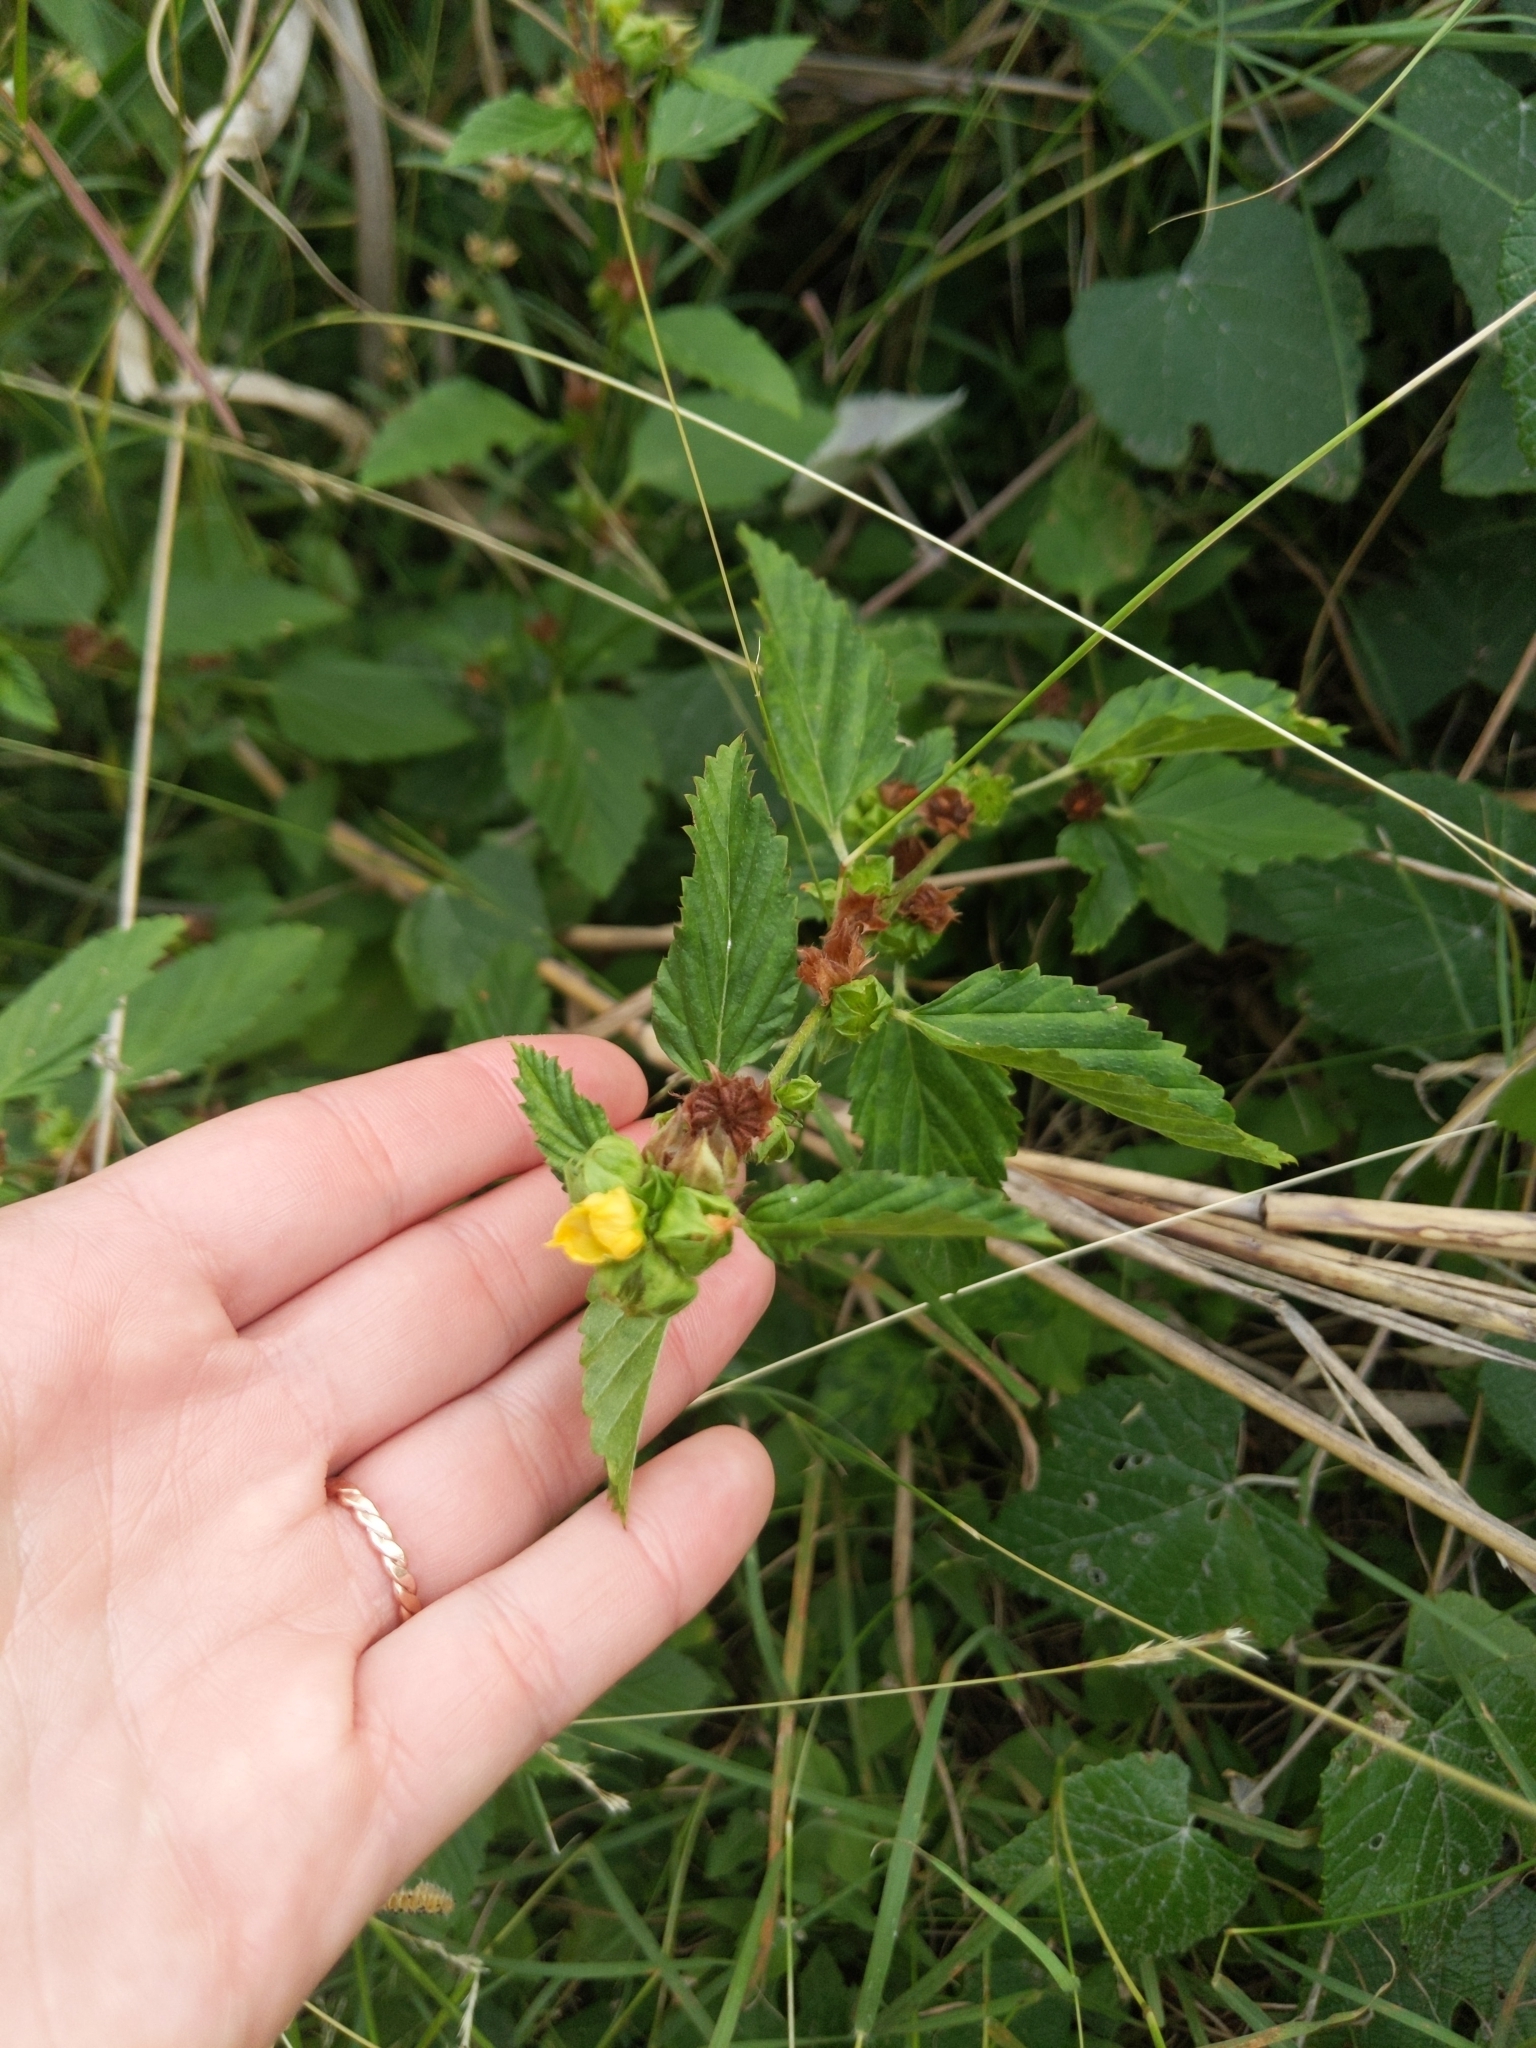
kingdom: Plantae
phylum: Tracheophyta
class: Magnoliopsida
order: Malvales
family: Malvaceae
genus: Malvastrum
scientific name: Malvastrum coromandelianum
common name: Threelobe false mallow
